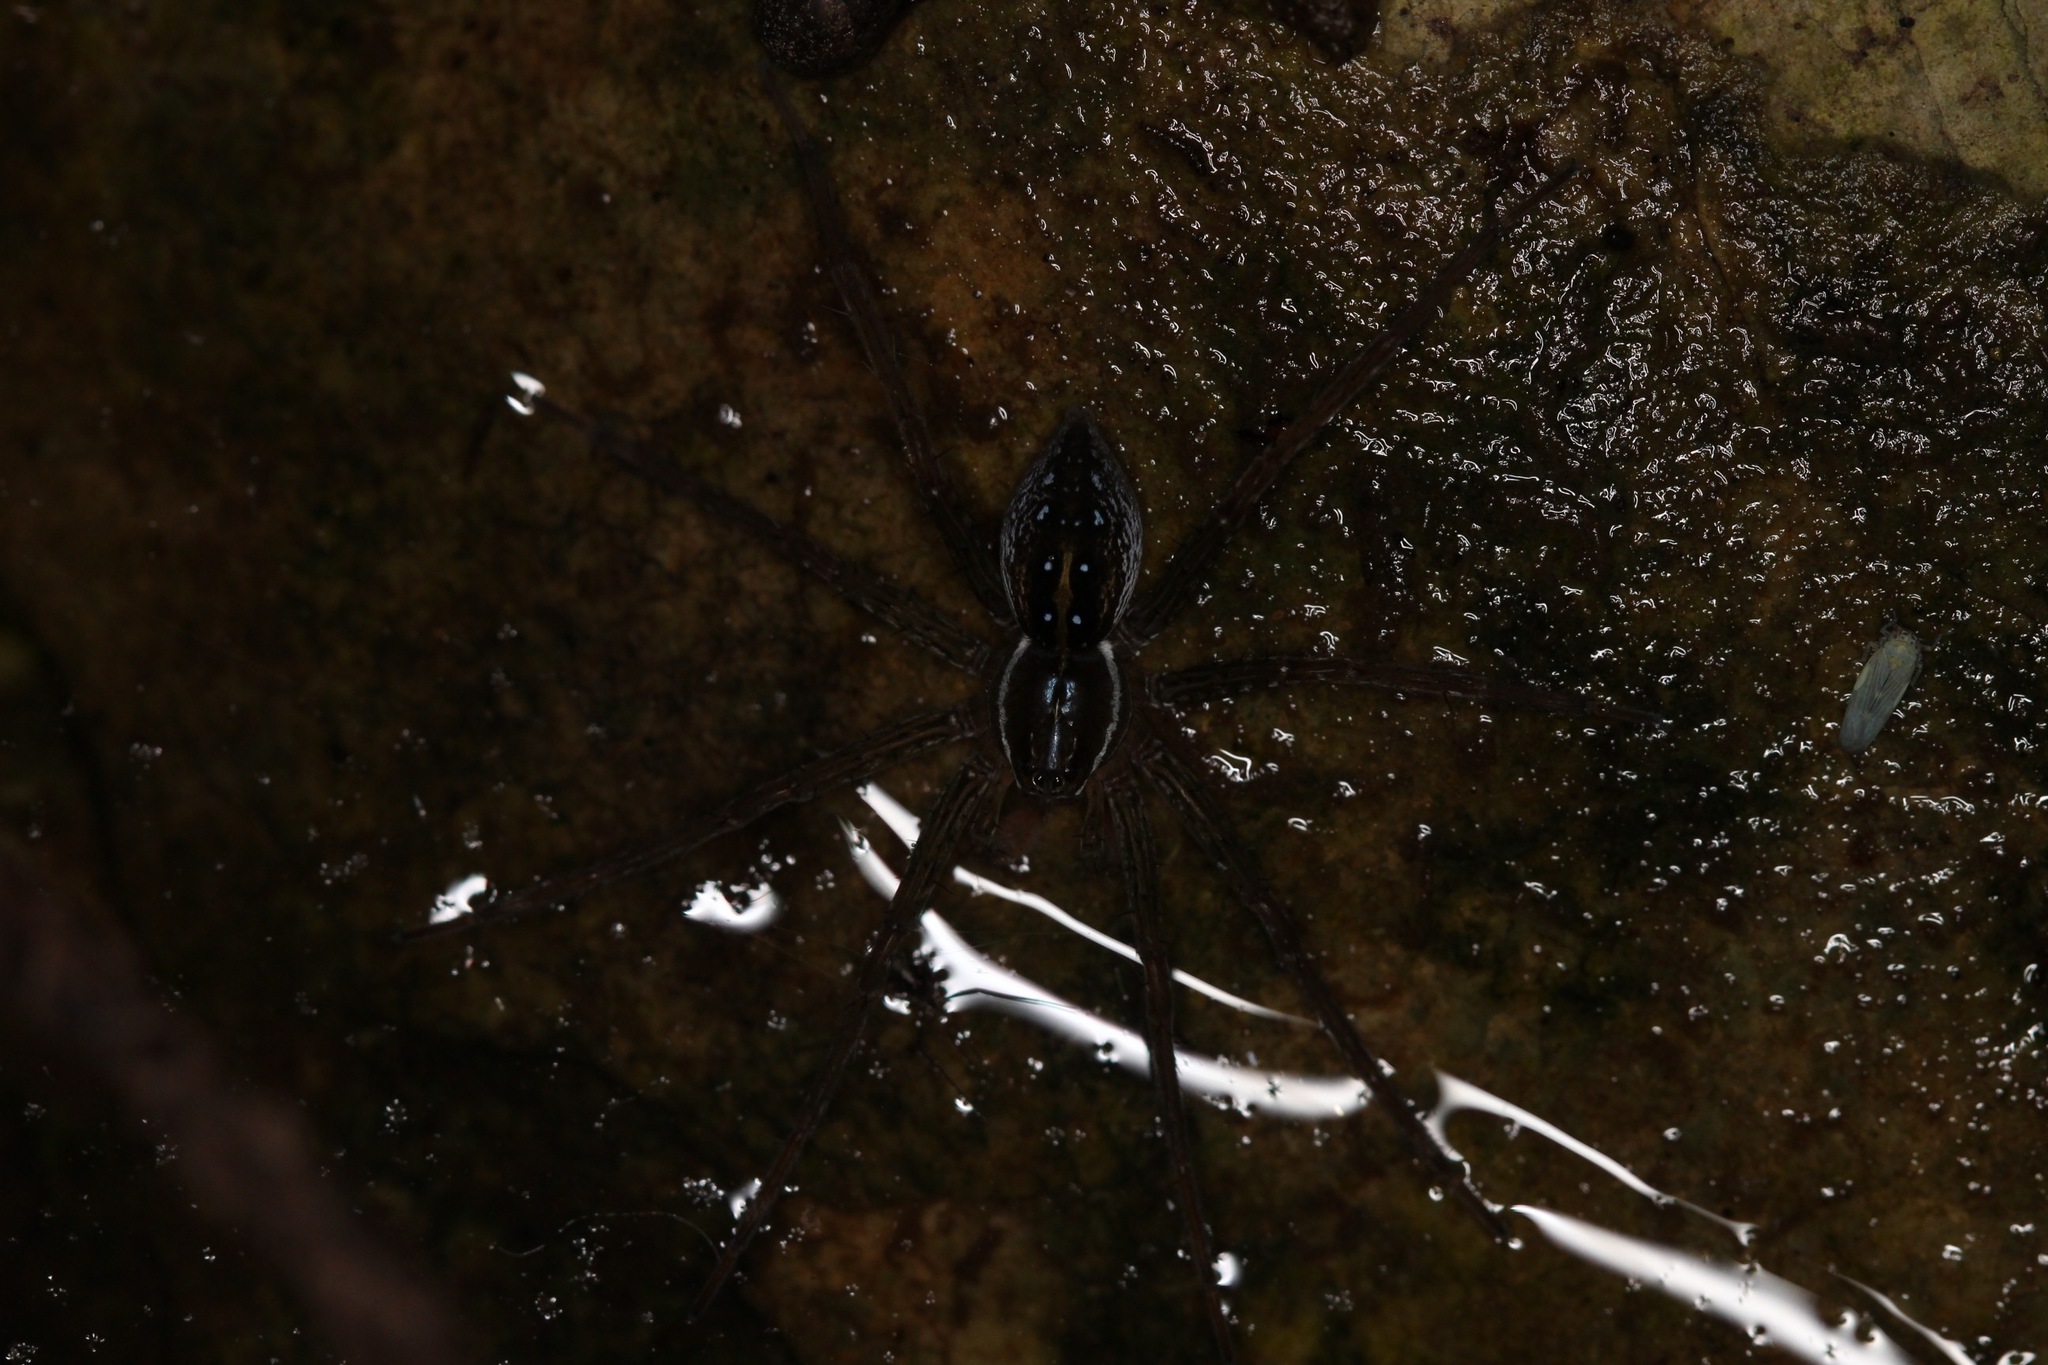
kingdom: Animalia
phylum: Arthropoda
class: Arachnida
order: Araneae
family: Pisauridae
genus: Dolomedes
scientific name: Dolomedes triton
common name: Six-spotted fishing spider
